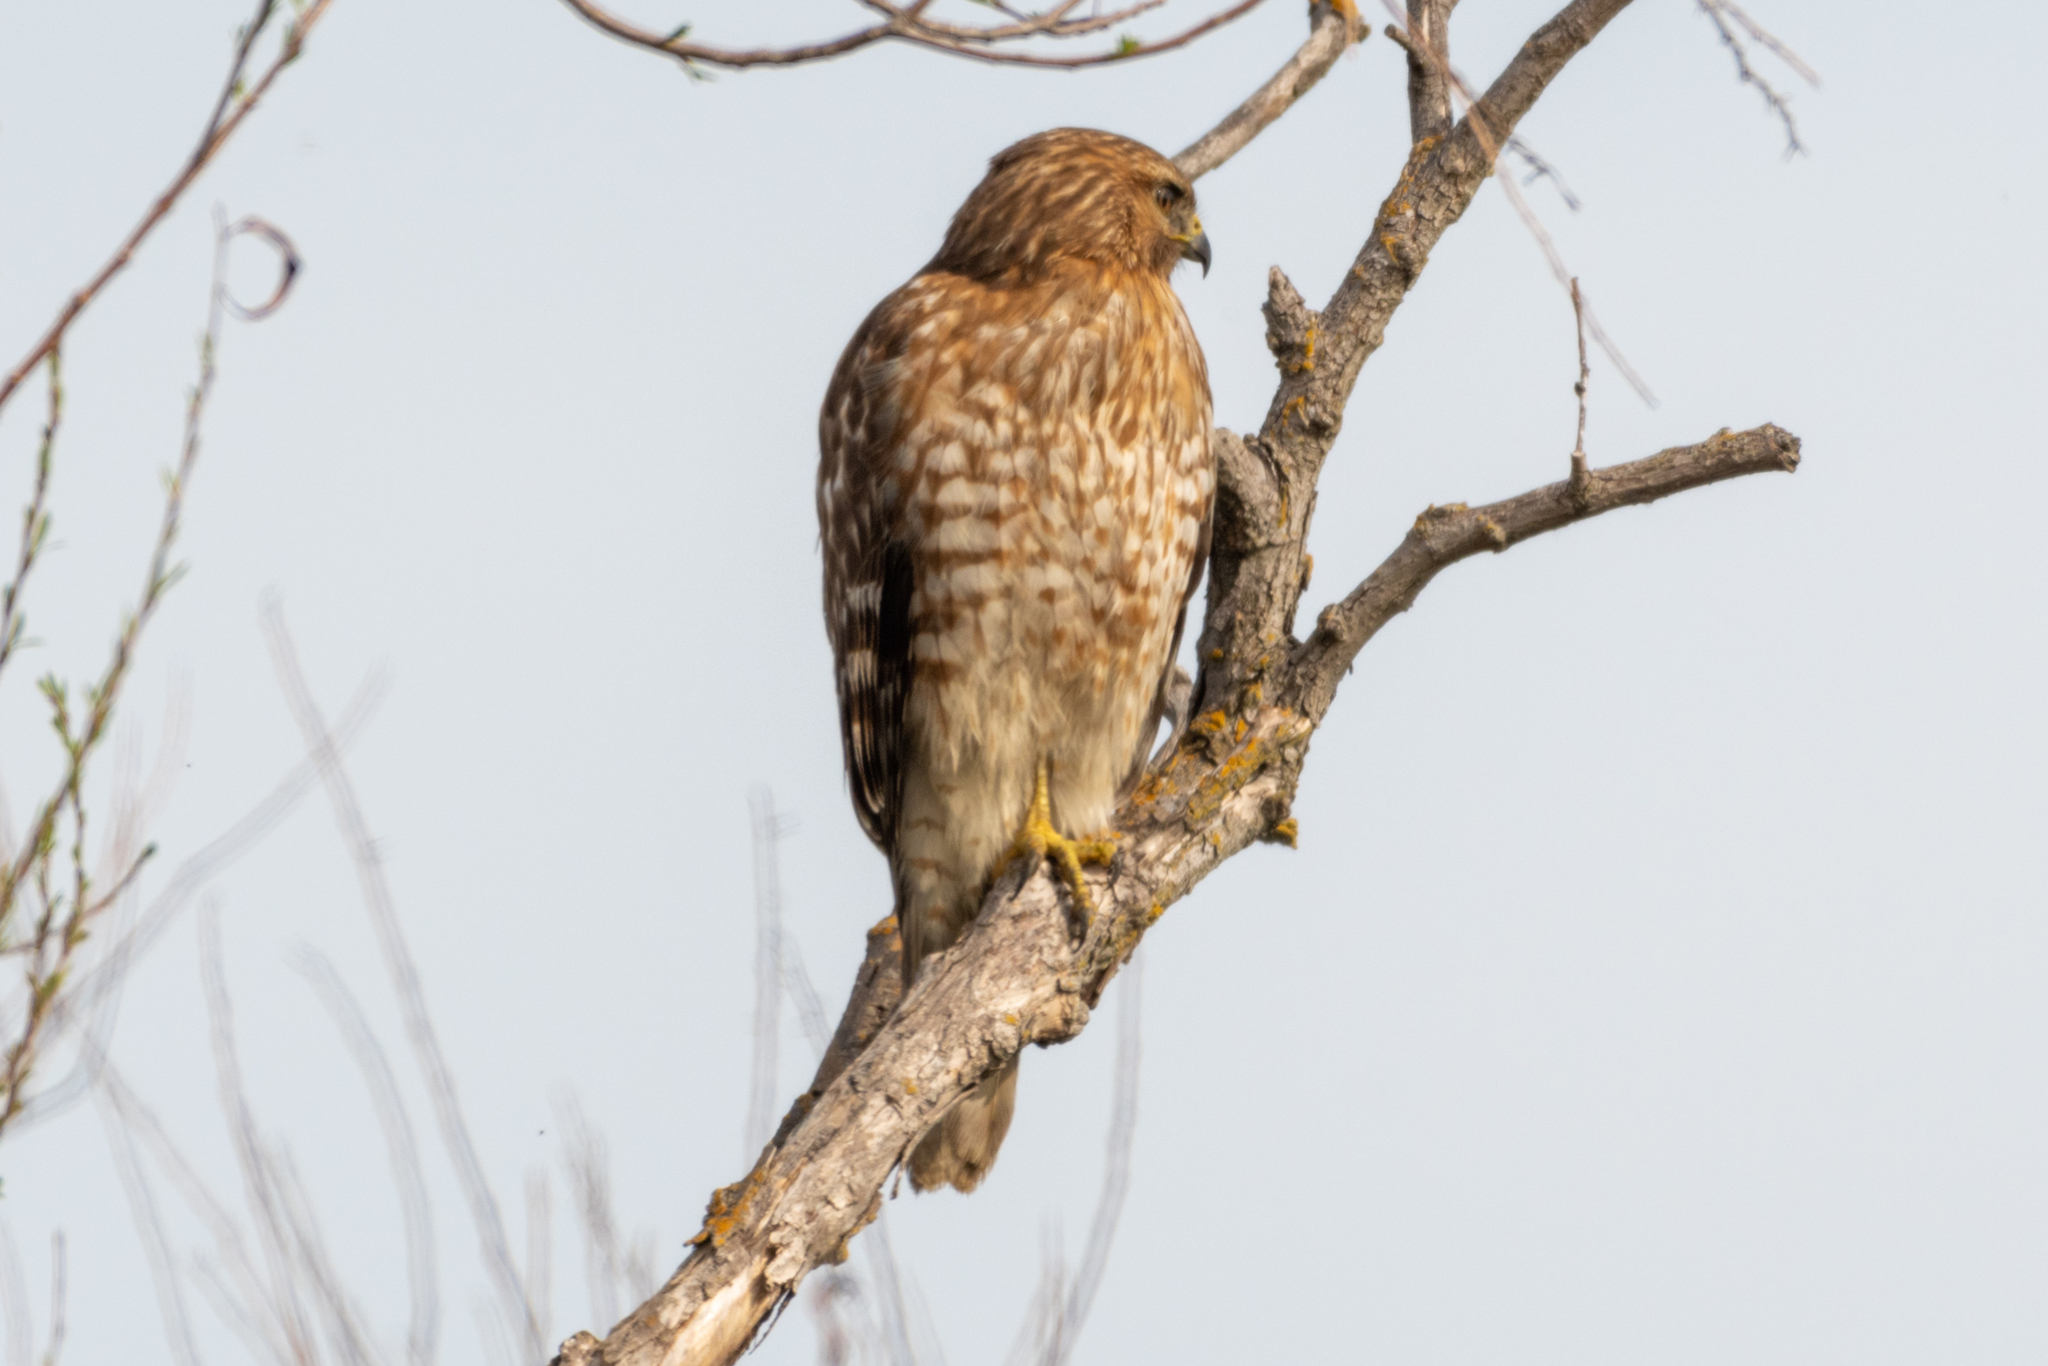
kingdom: Animalia
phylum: Chordata
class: Aves
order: Accipitriformes
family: Accipitridae
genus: Buteo
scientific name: Buteo lineatus
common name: Red-shouldered hawk
